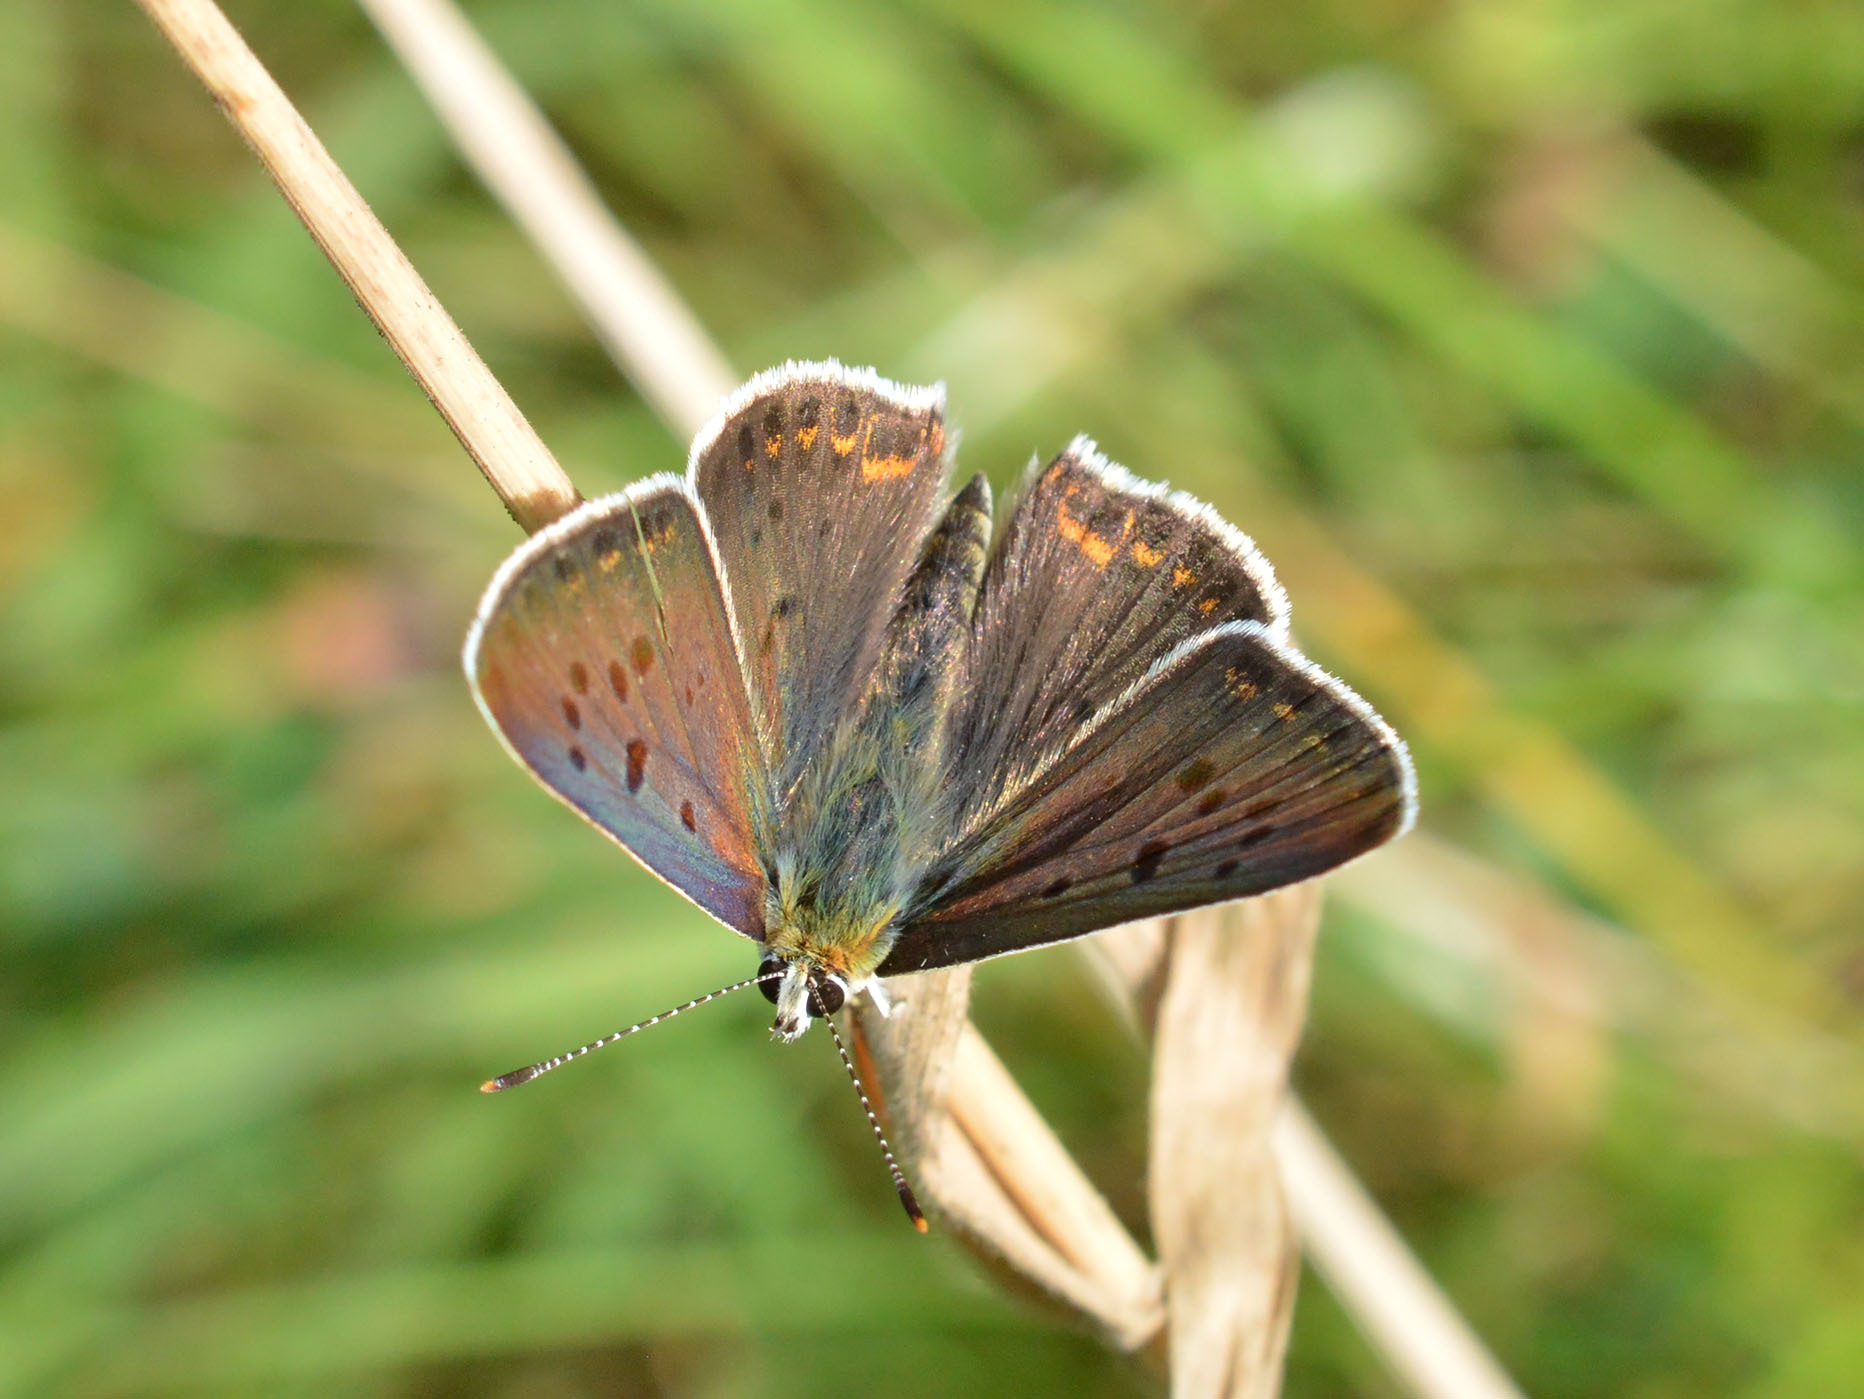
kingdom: Animalia
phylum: Arthropoda
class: Insecta
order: Lepidoptera
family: Lycaenidae
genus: Loweia
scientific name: Loweia tityrus
